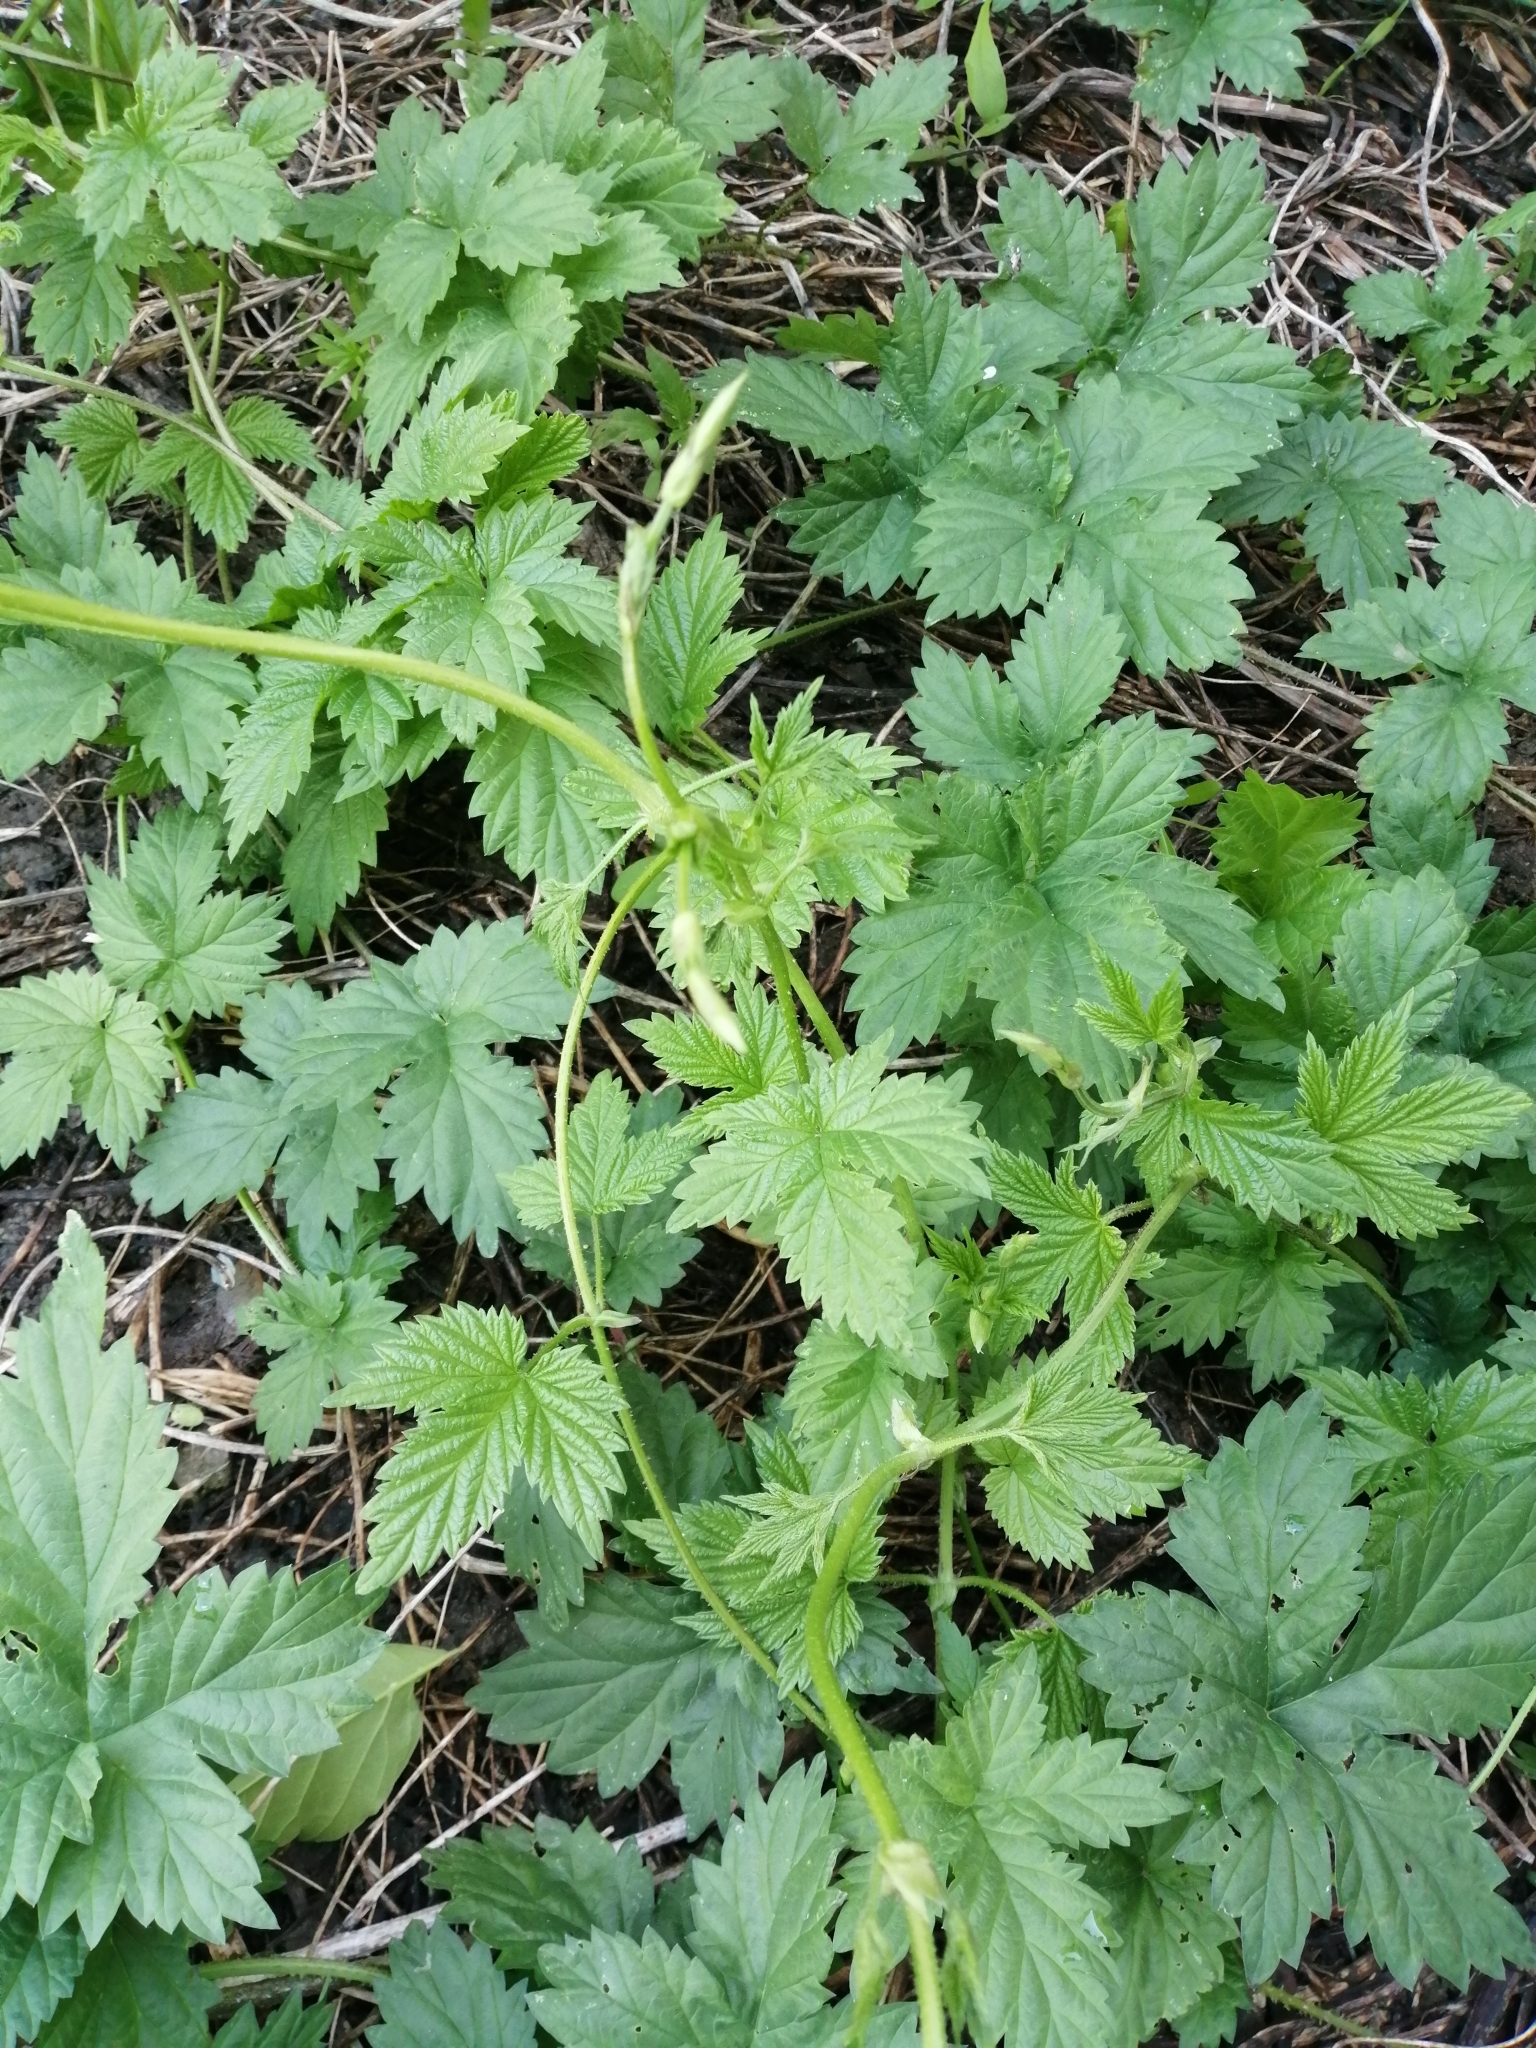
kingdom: Plantae
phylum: Tracheophyta
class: Magnoliopsida
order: Rosales
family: Cannabaceae
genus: Humulus
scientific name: Humulus lupulus
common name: Hop
